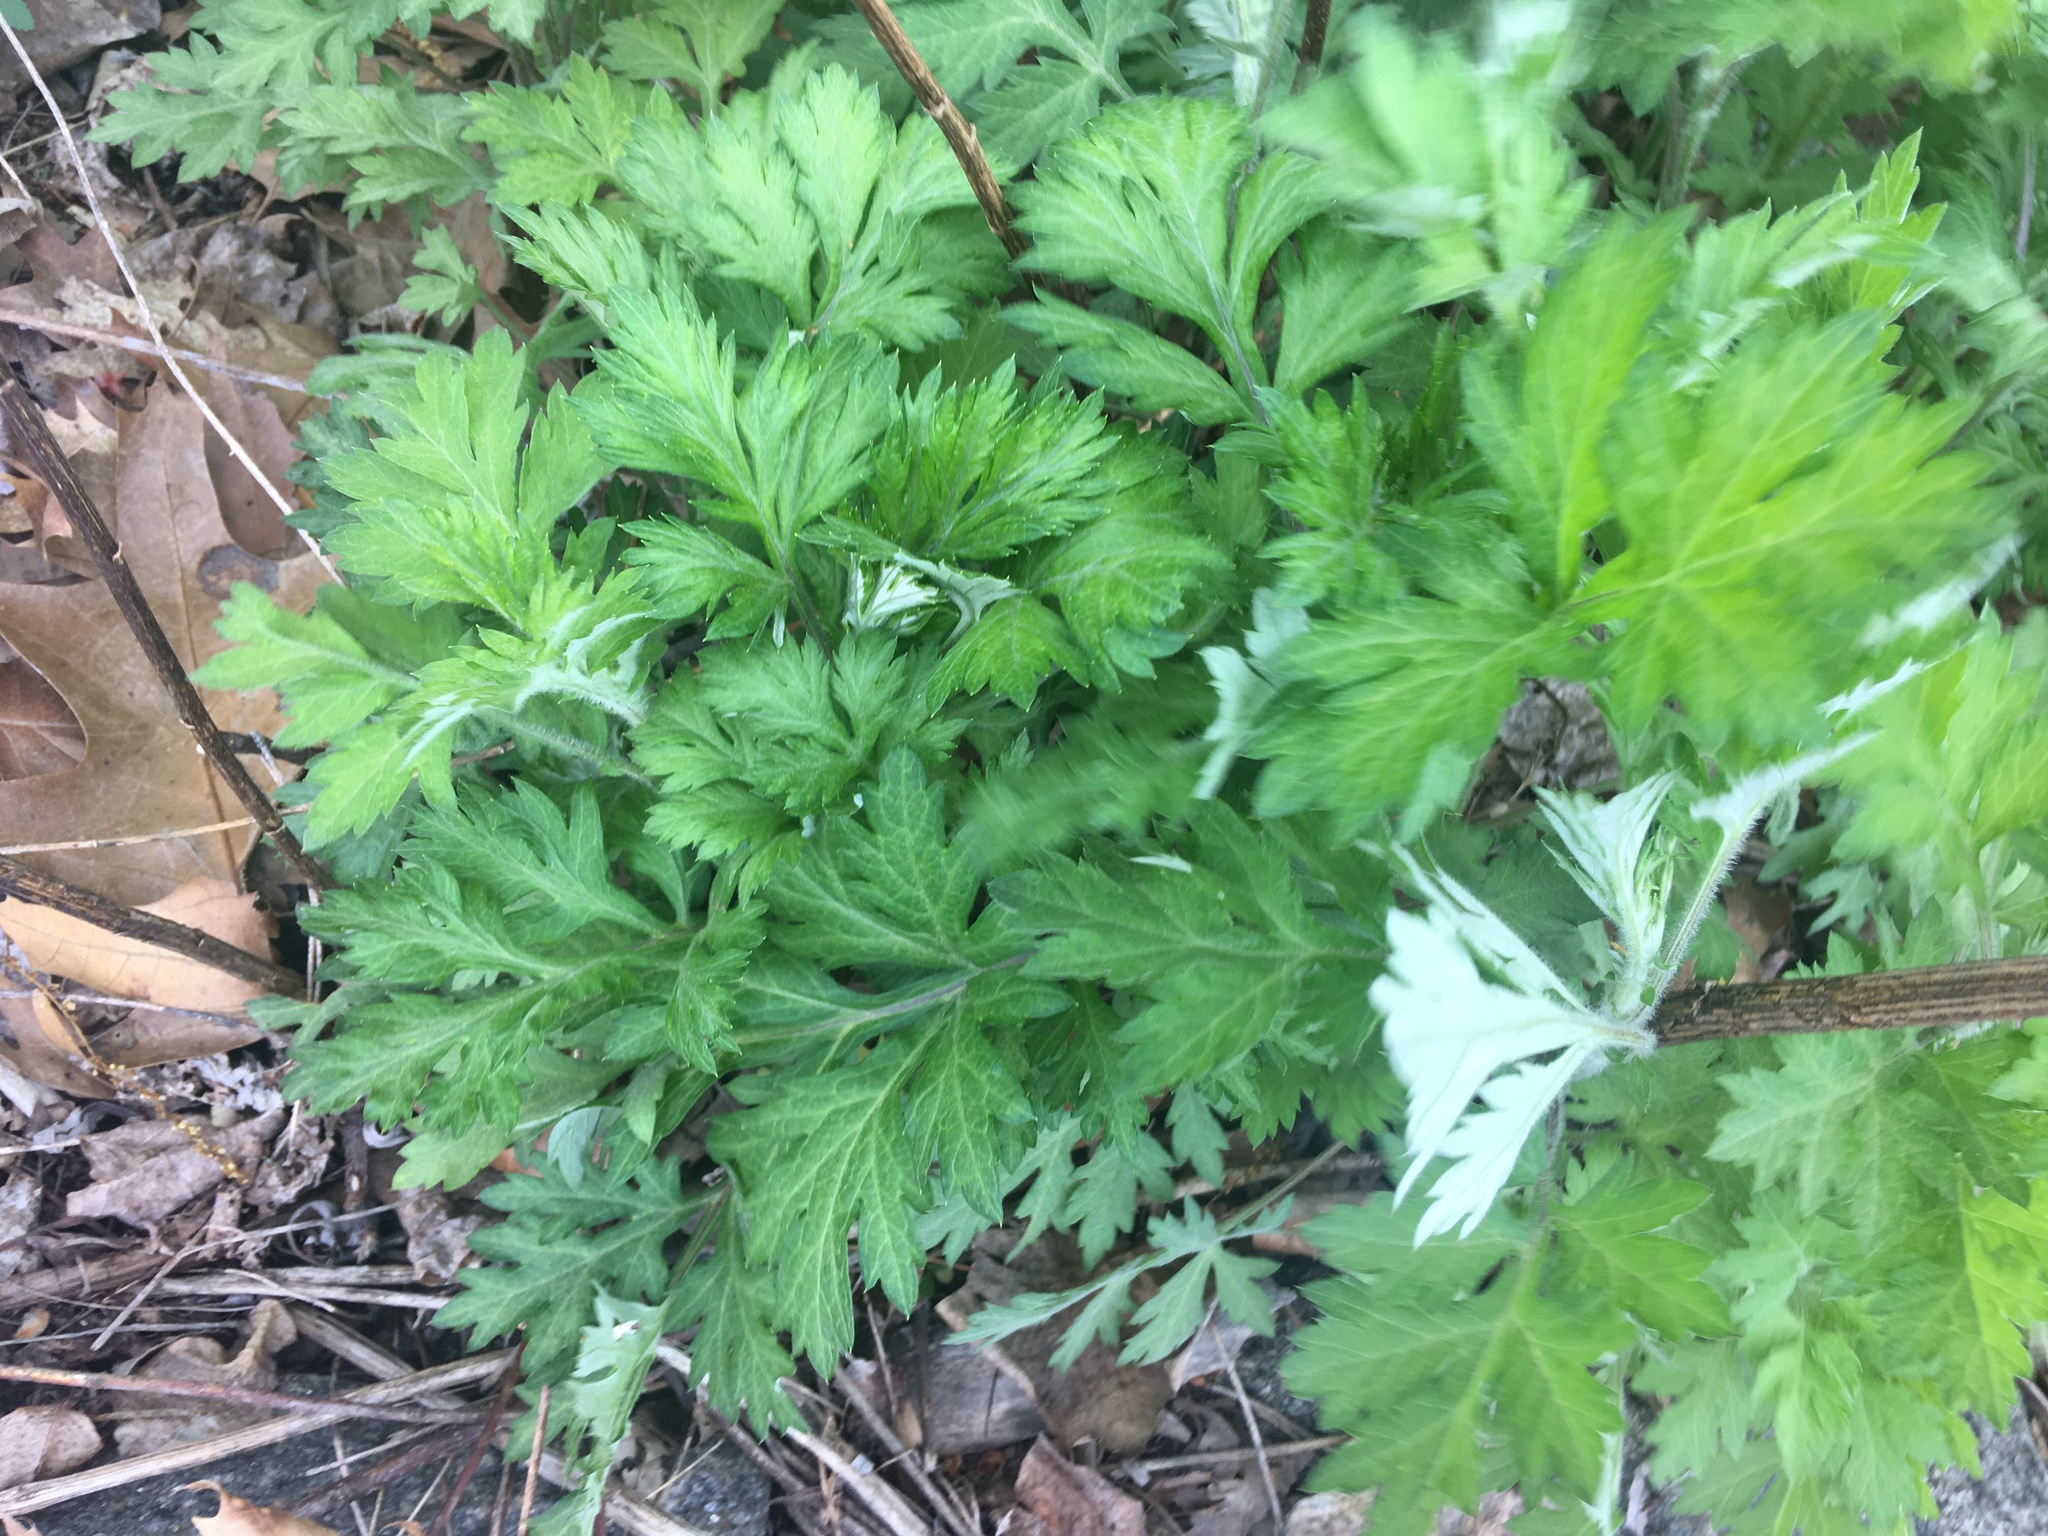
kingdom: Plantae
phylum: Tracheophyta
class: Magnoliopsida
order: Asterales
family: Asteraceae
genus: Artemisia
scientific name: Artemisia vulgaris
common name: Mugwort
